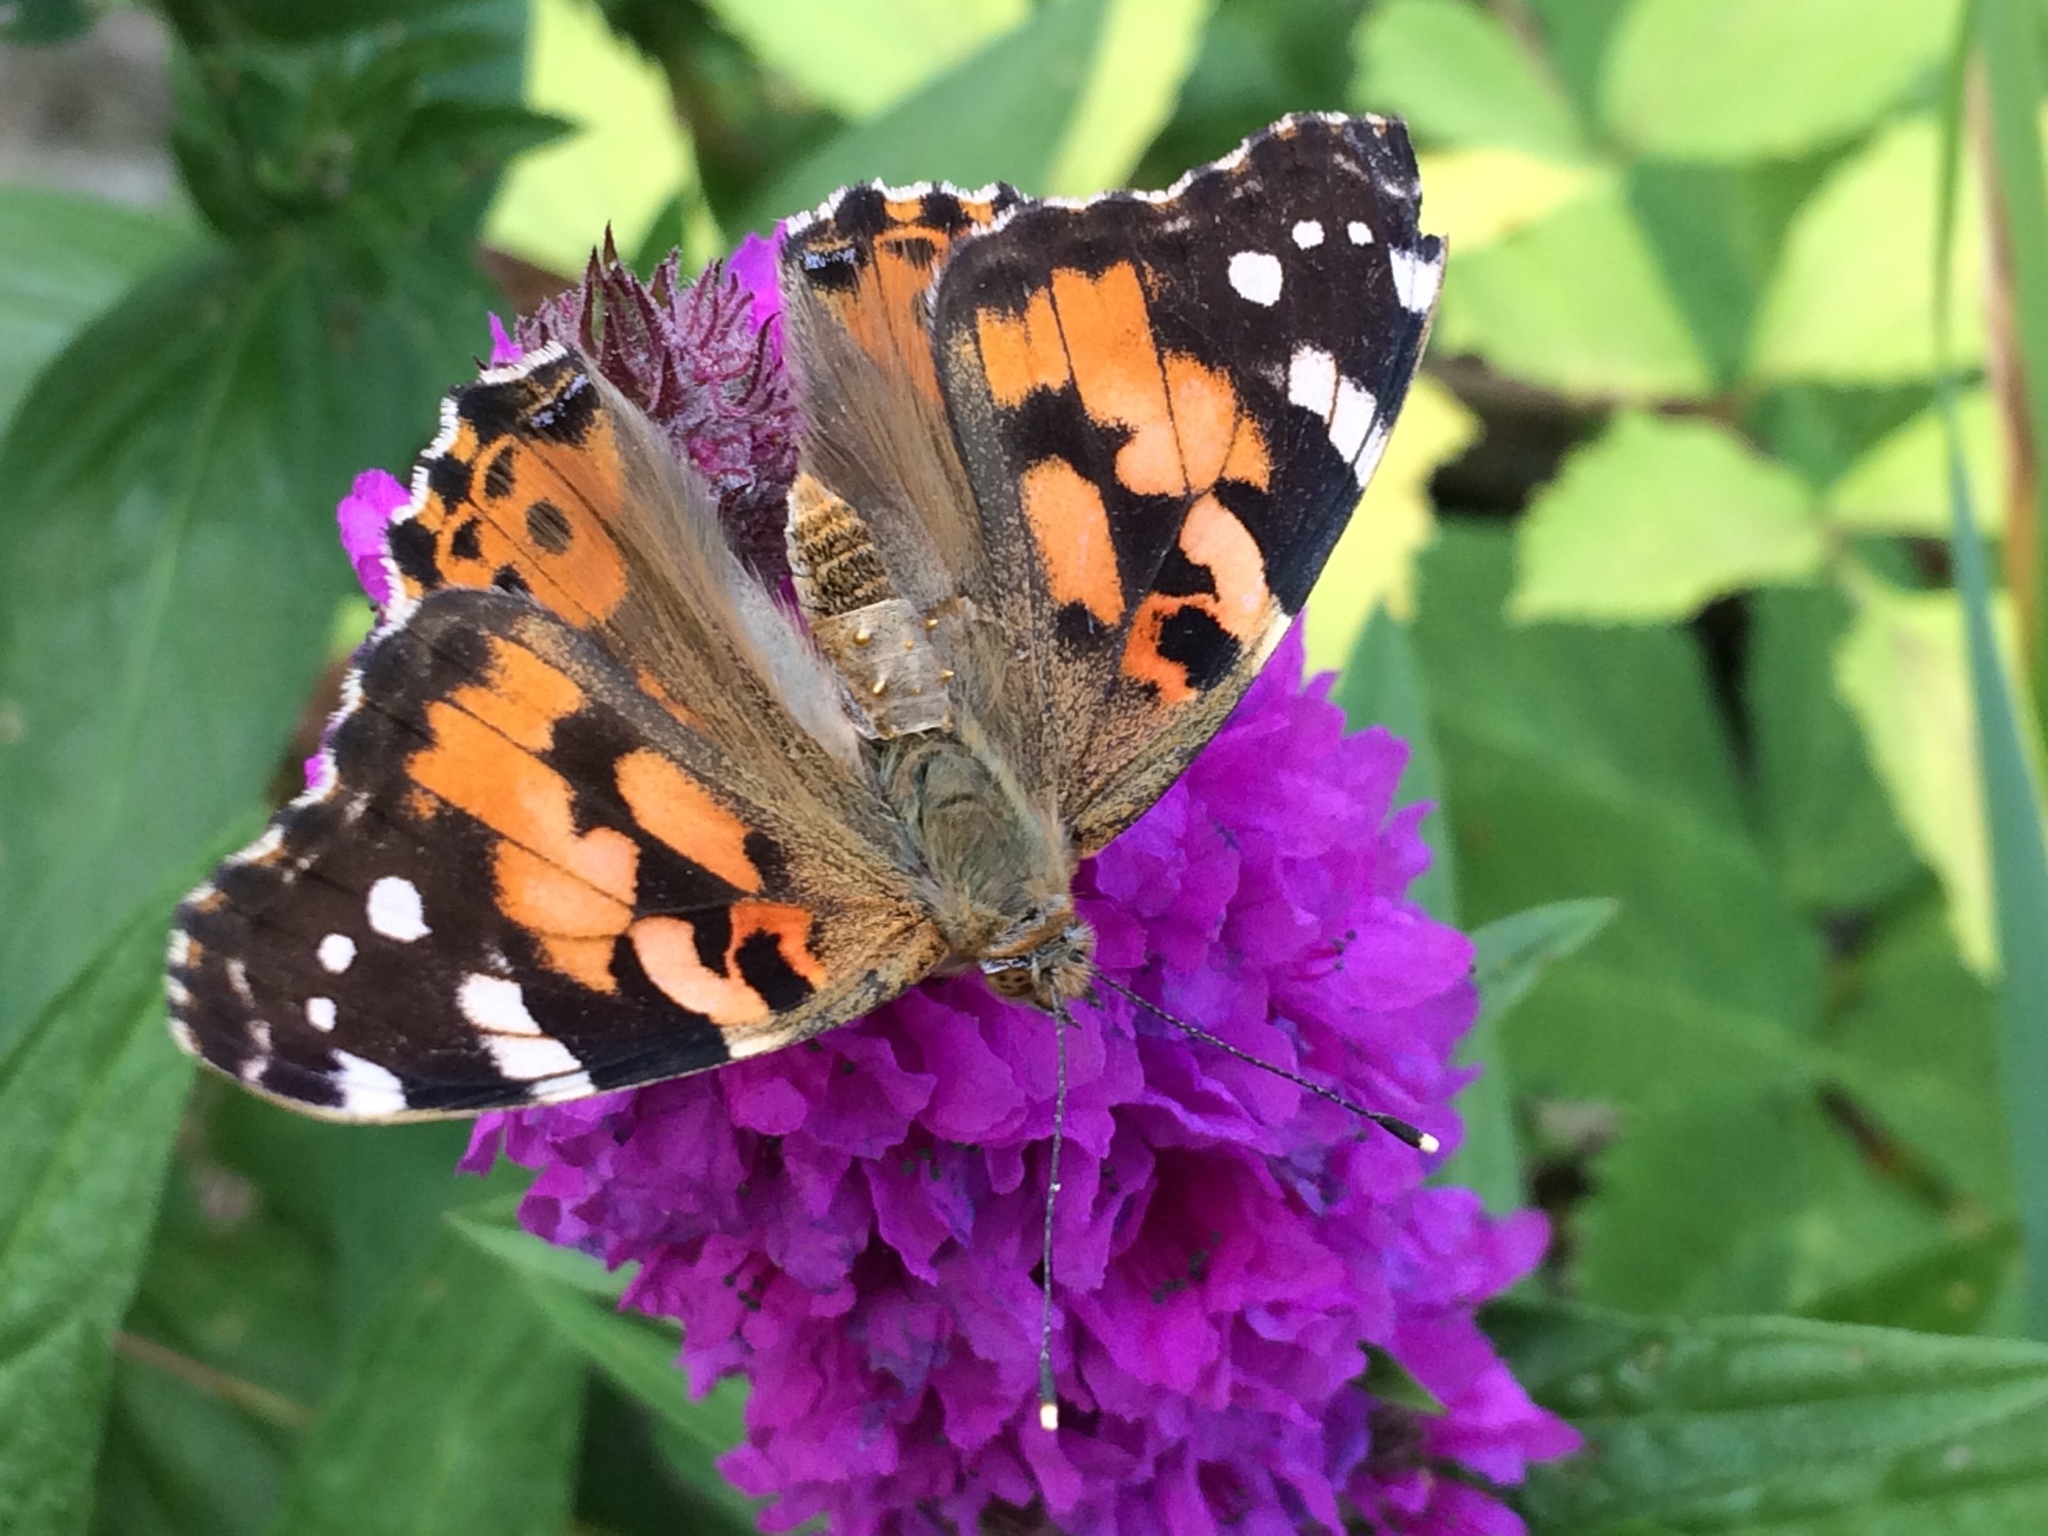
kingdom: Animalia
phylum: Arthropoda
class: Insecta
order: Lepidoptera
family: Nymphalidae
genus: Vanessa
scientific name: Vanessa cardui
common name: Painted lady
